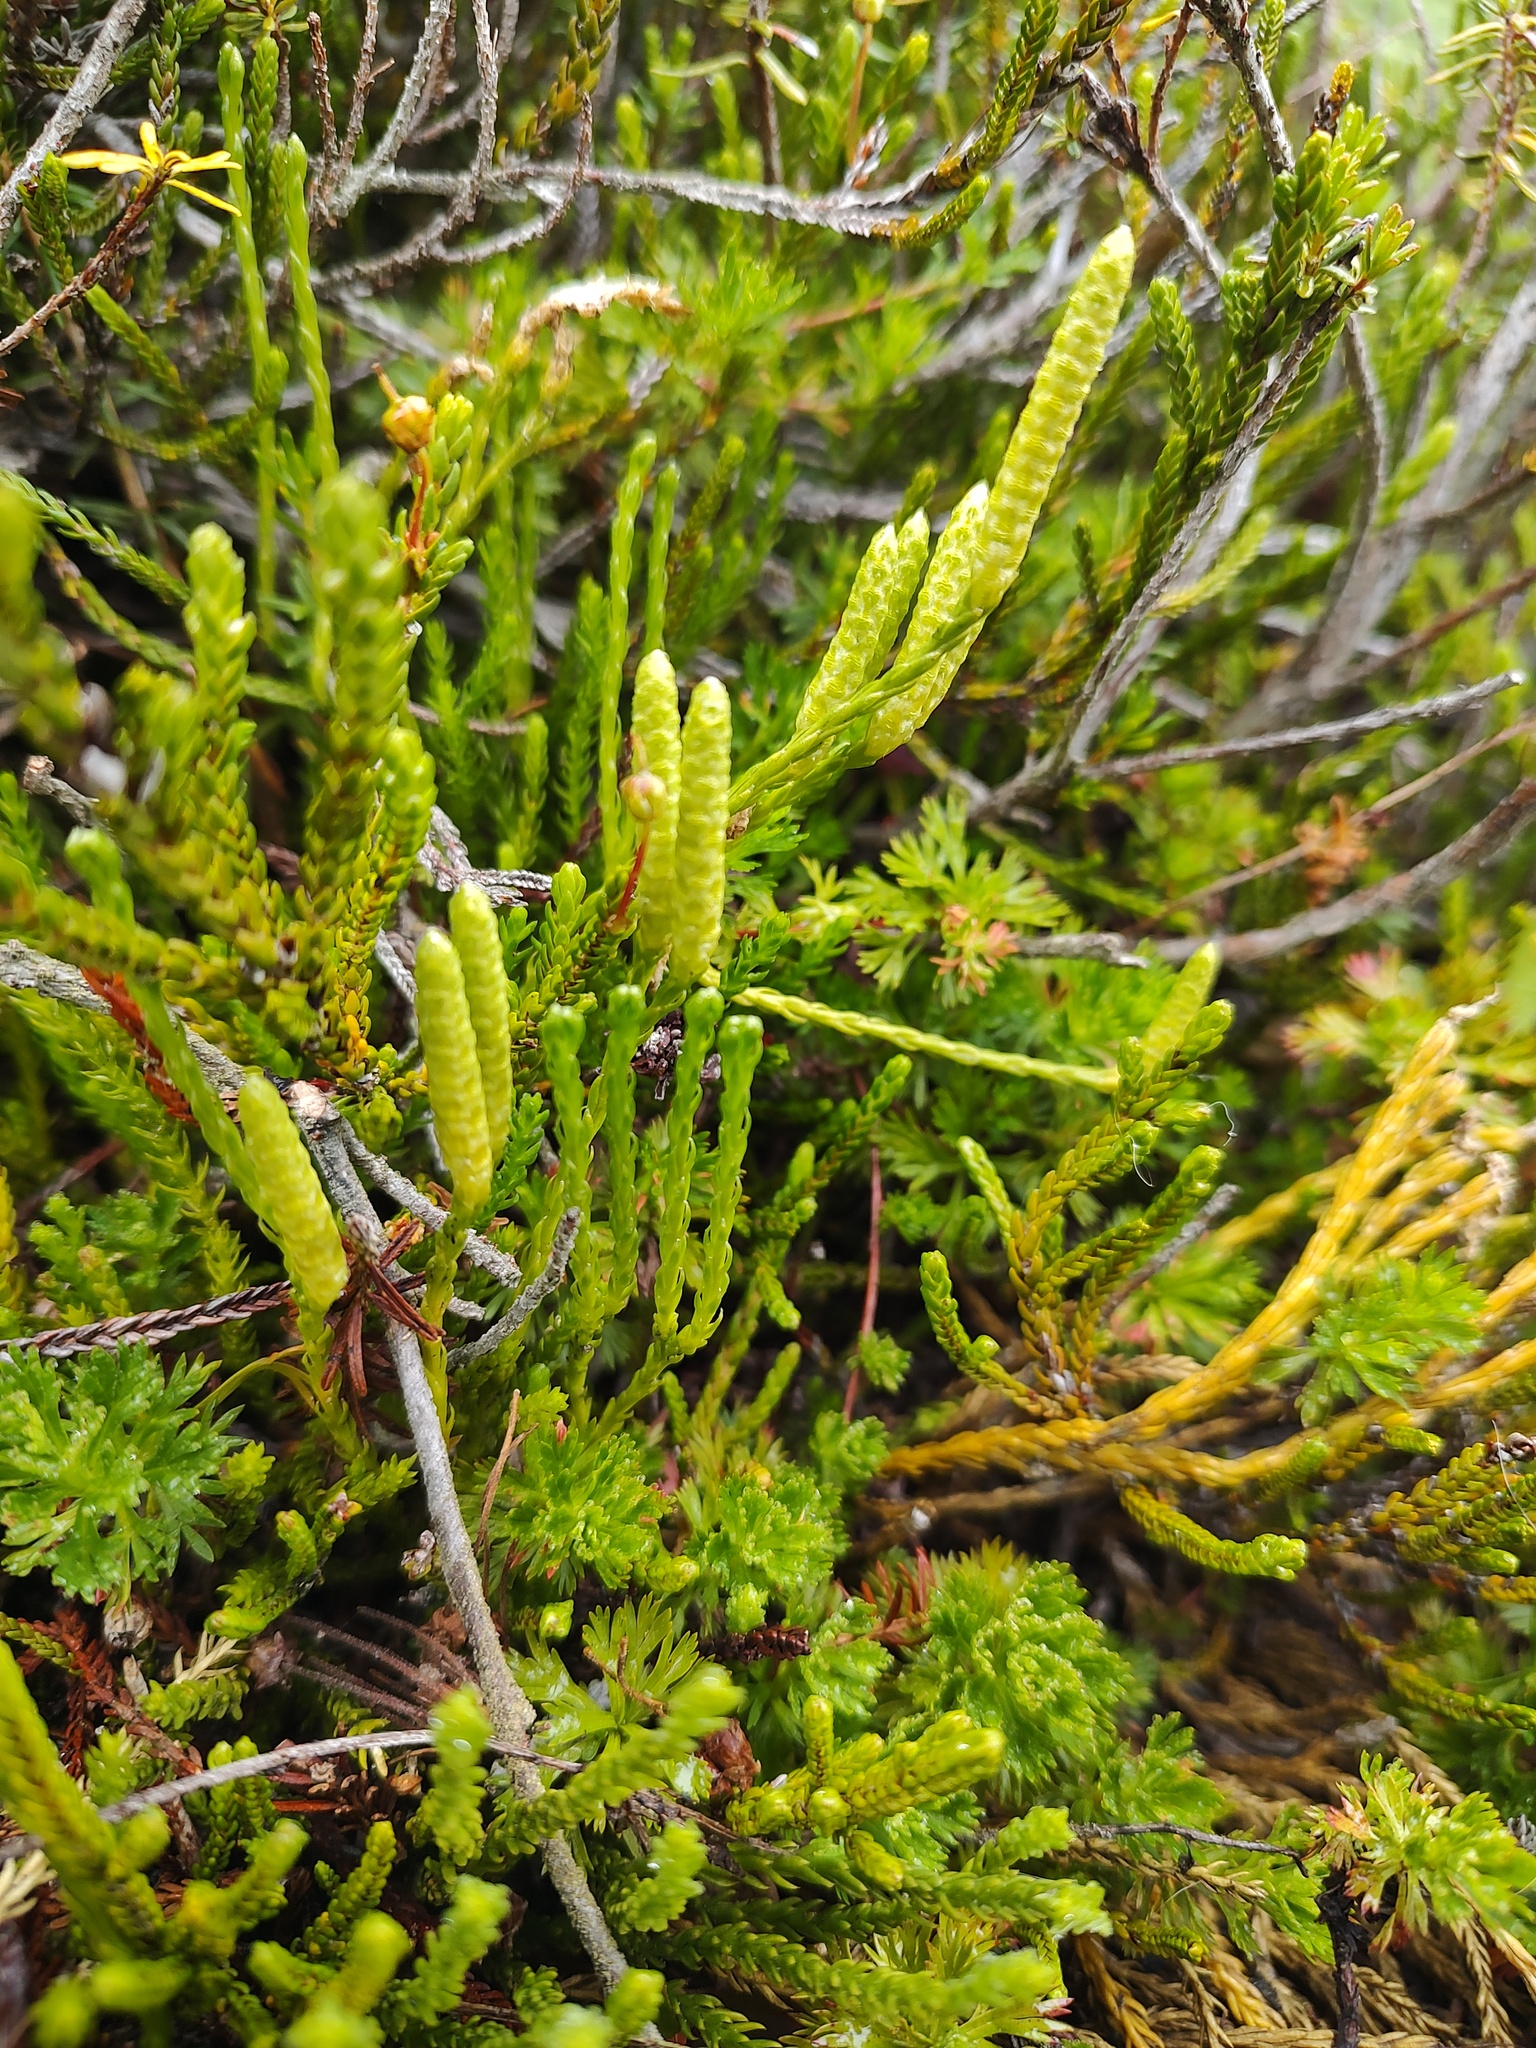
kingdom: Plantae
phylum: Tracheophyta
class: Lycopodiopsida
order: Lycopodiales
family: Lycopodiaceae
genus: Diphasiastrum
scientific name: Diphasiastrum sitchense
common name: Alaska clubmoss
